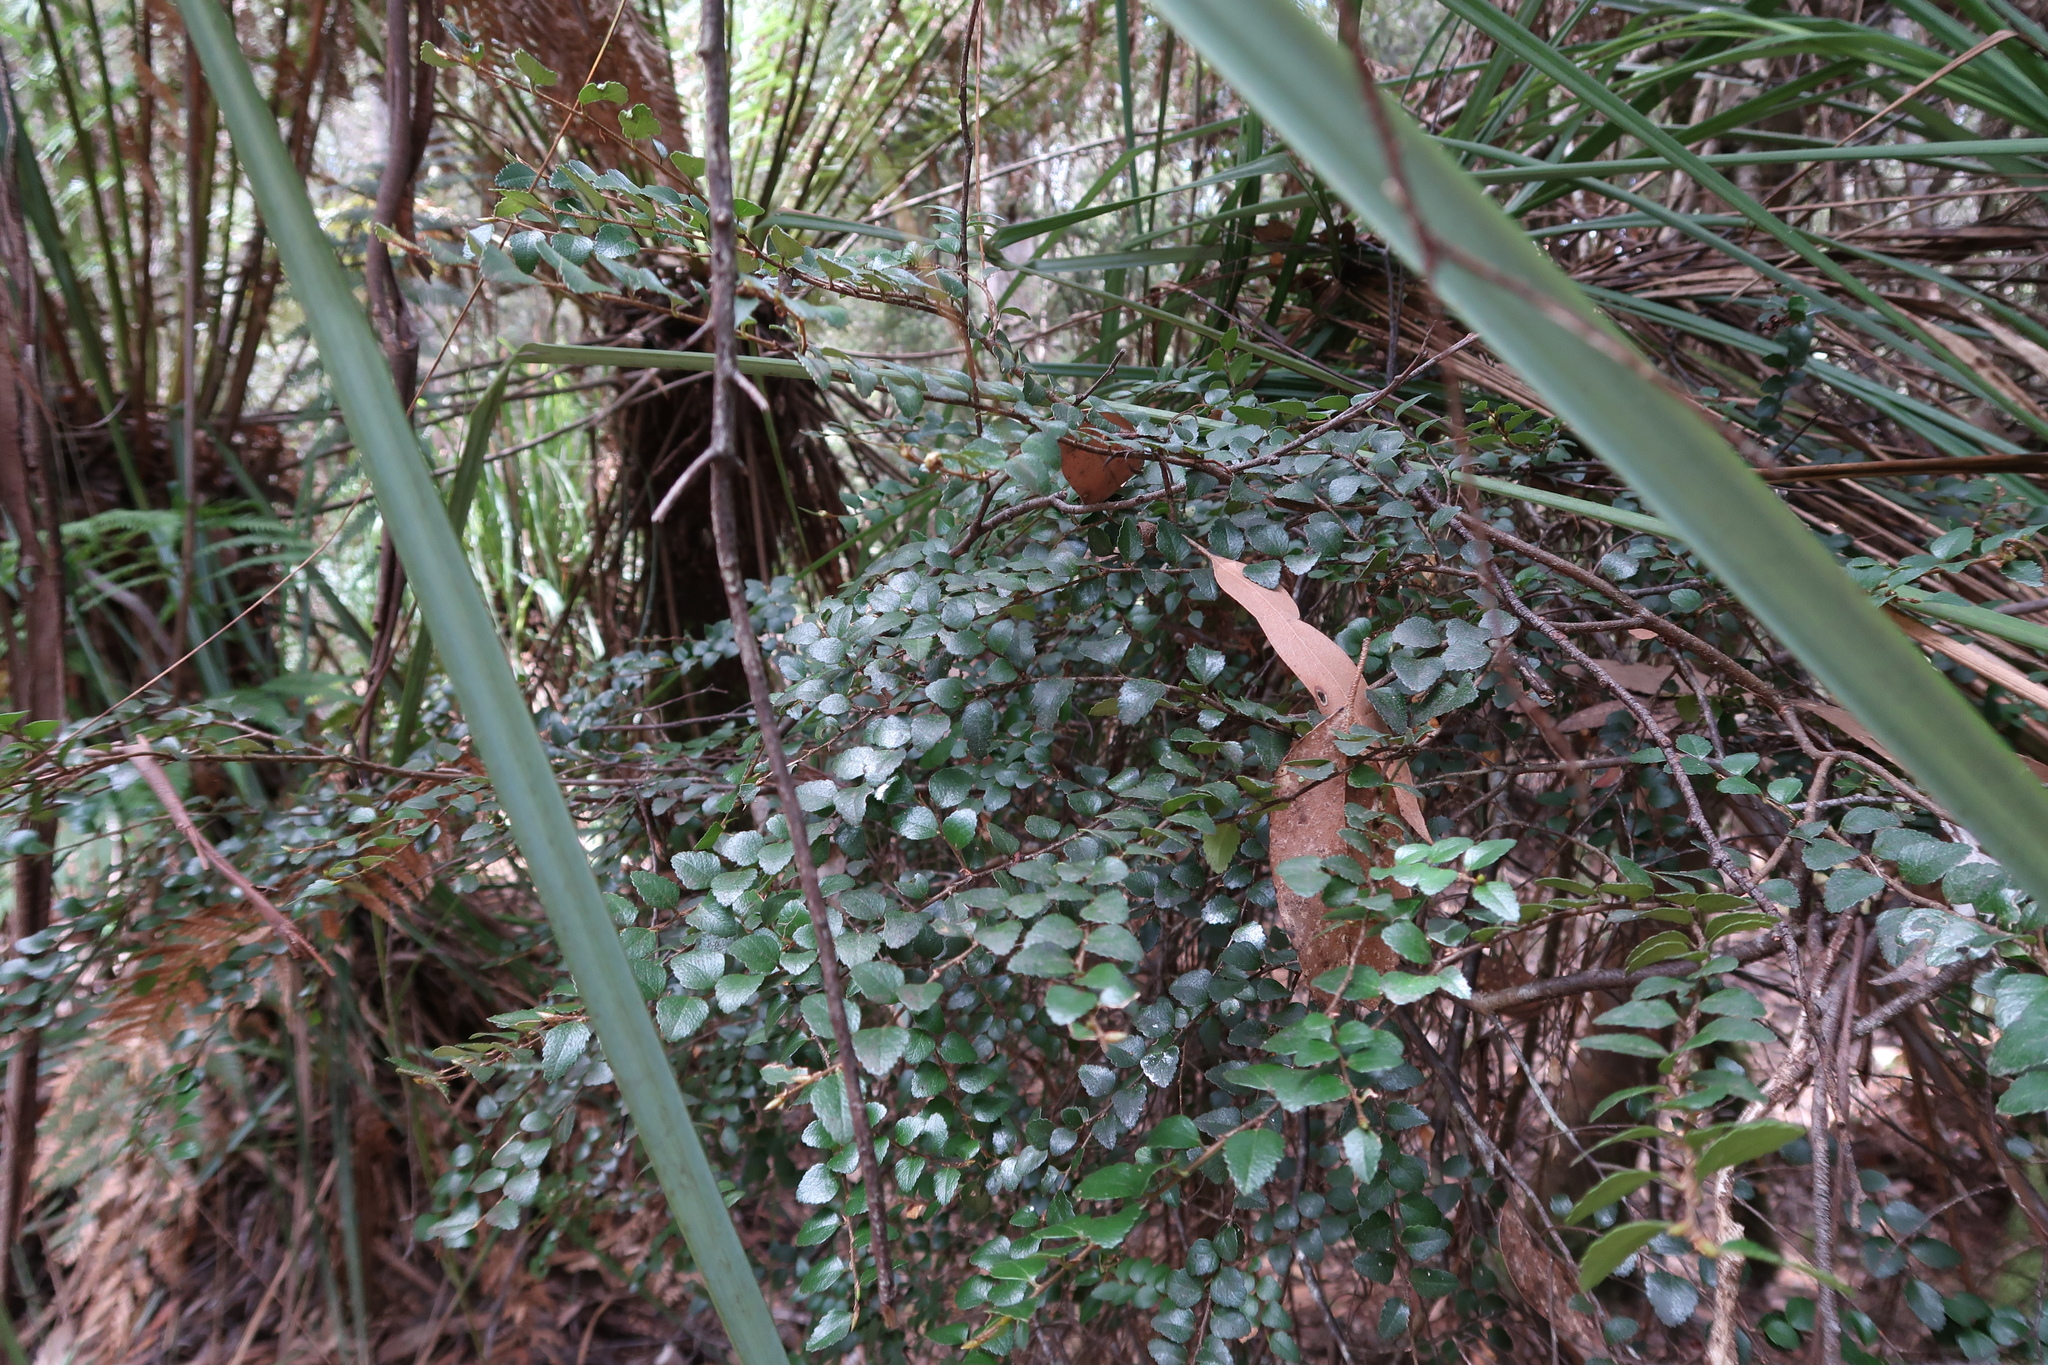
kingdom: Plantae
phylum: Tracheophyta
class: Magnoliopsida
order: Fagales
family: Nothofagaceae
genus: Nothofagus
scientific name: Nothofagus cunninghamii
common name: Myrtle beech
